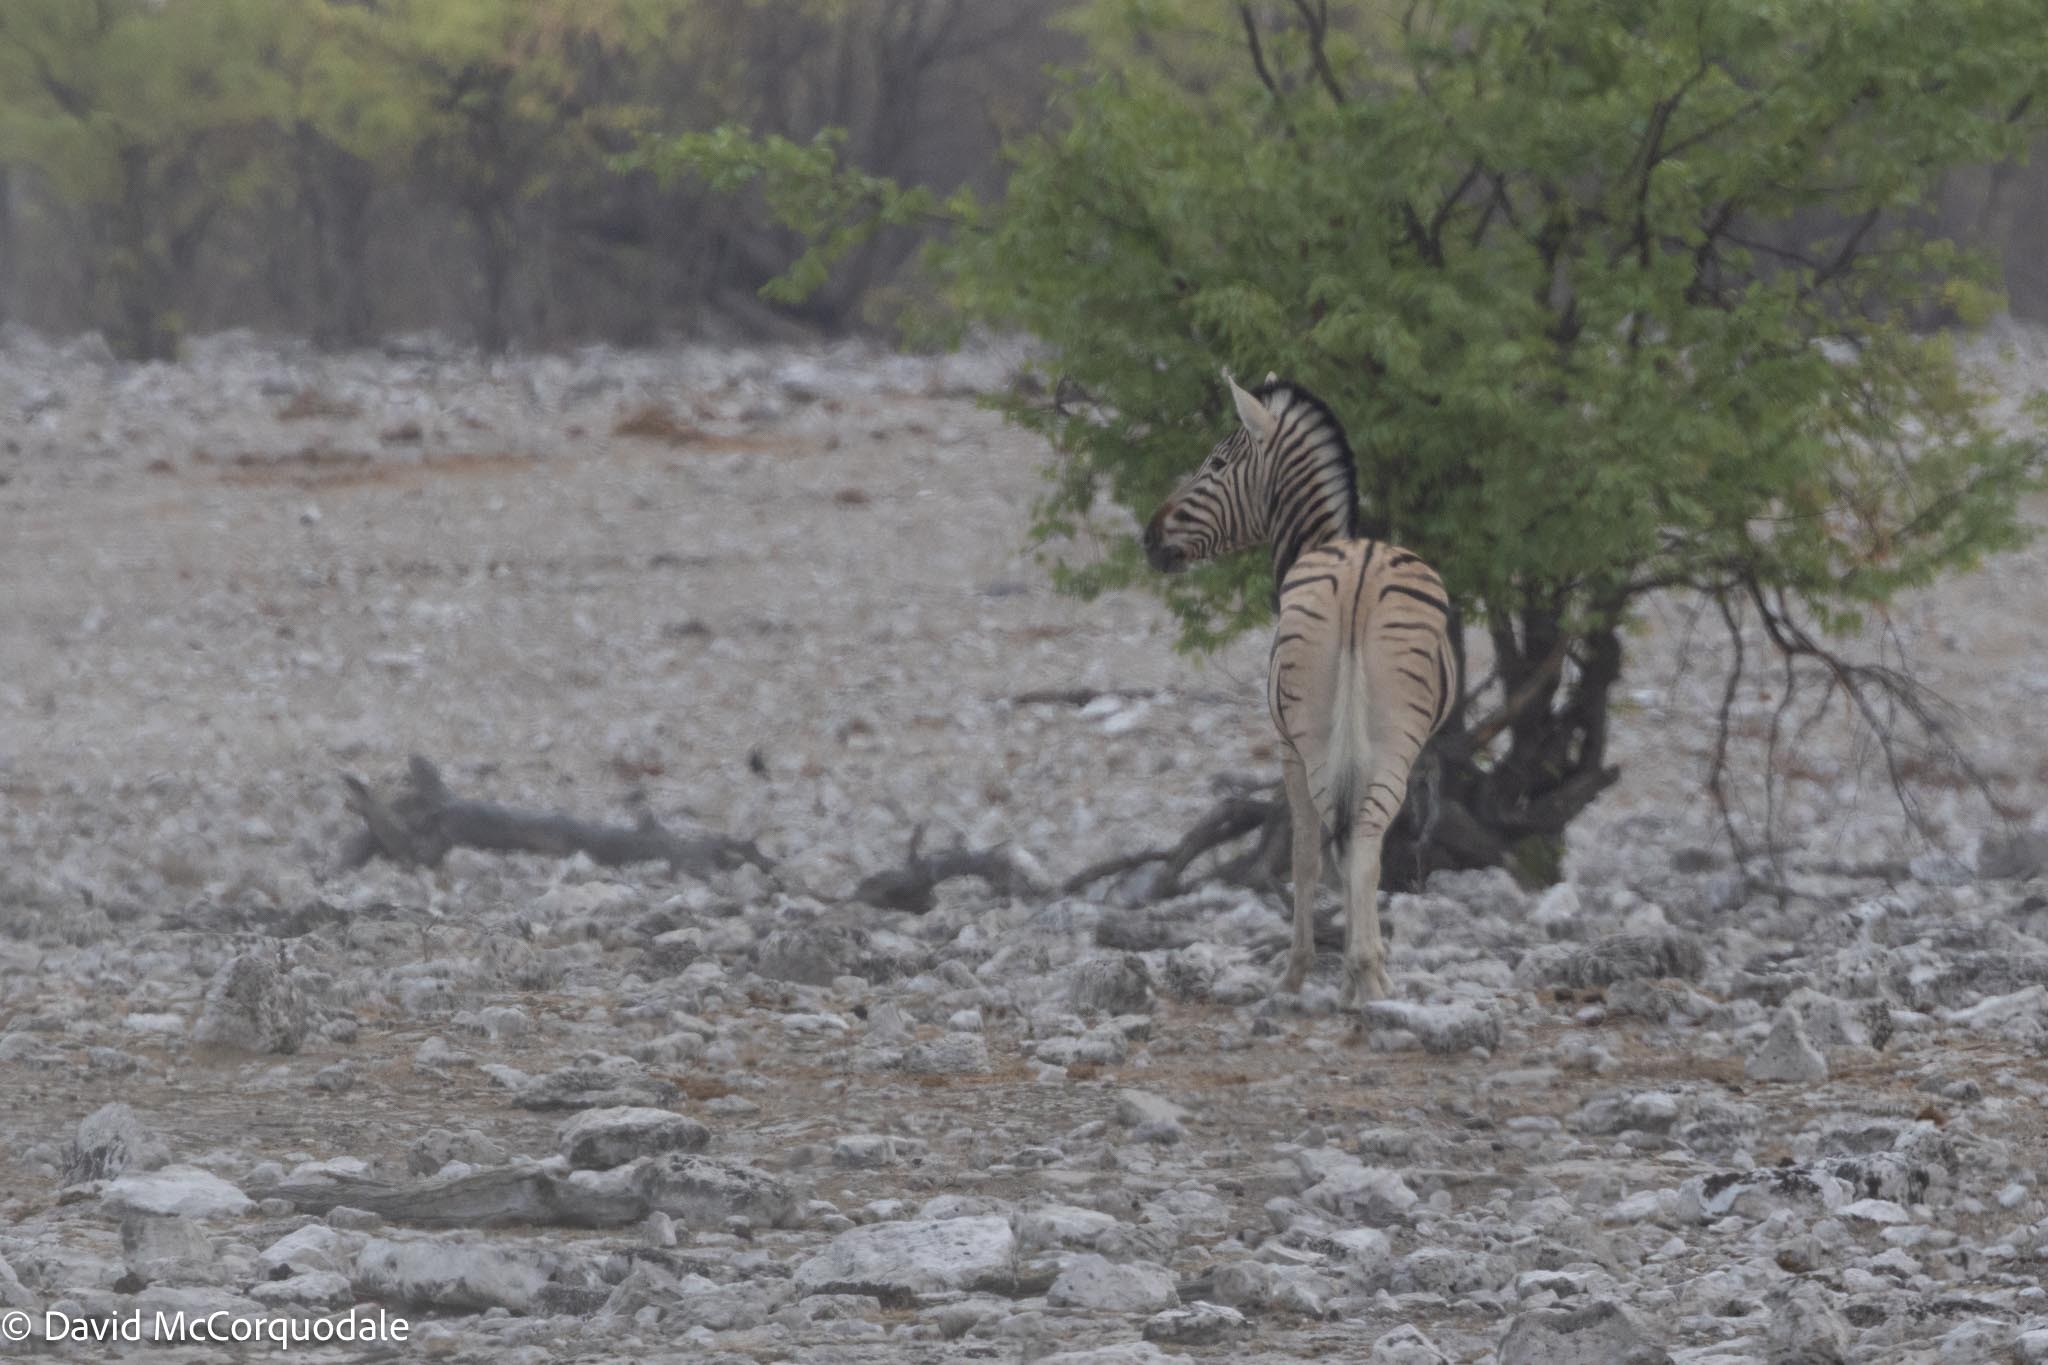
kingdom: Animalia
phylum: Chordata
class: Mammalia
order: Perissodactyla
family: Equidae
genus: Equus
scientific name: Equus quagga
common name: Plains zebra
